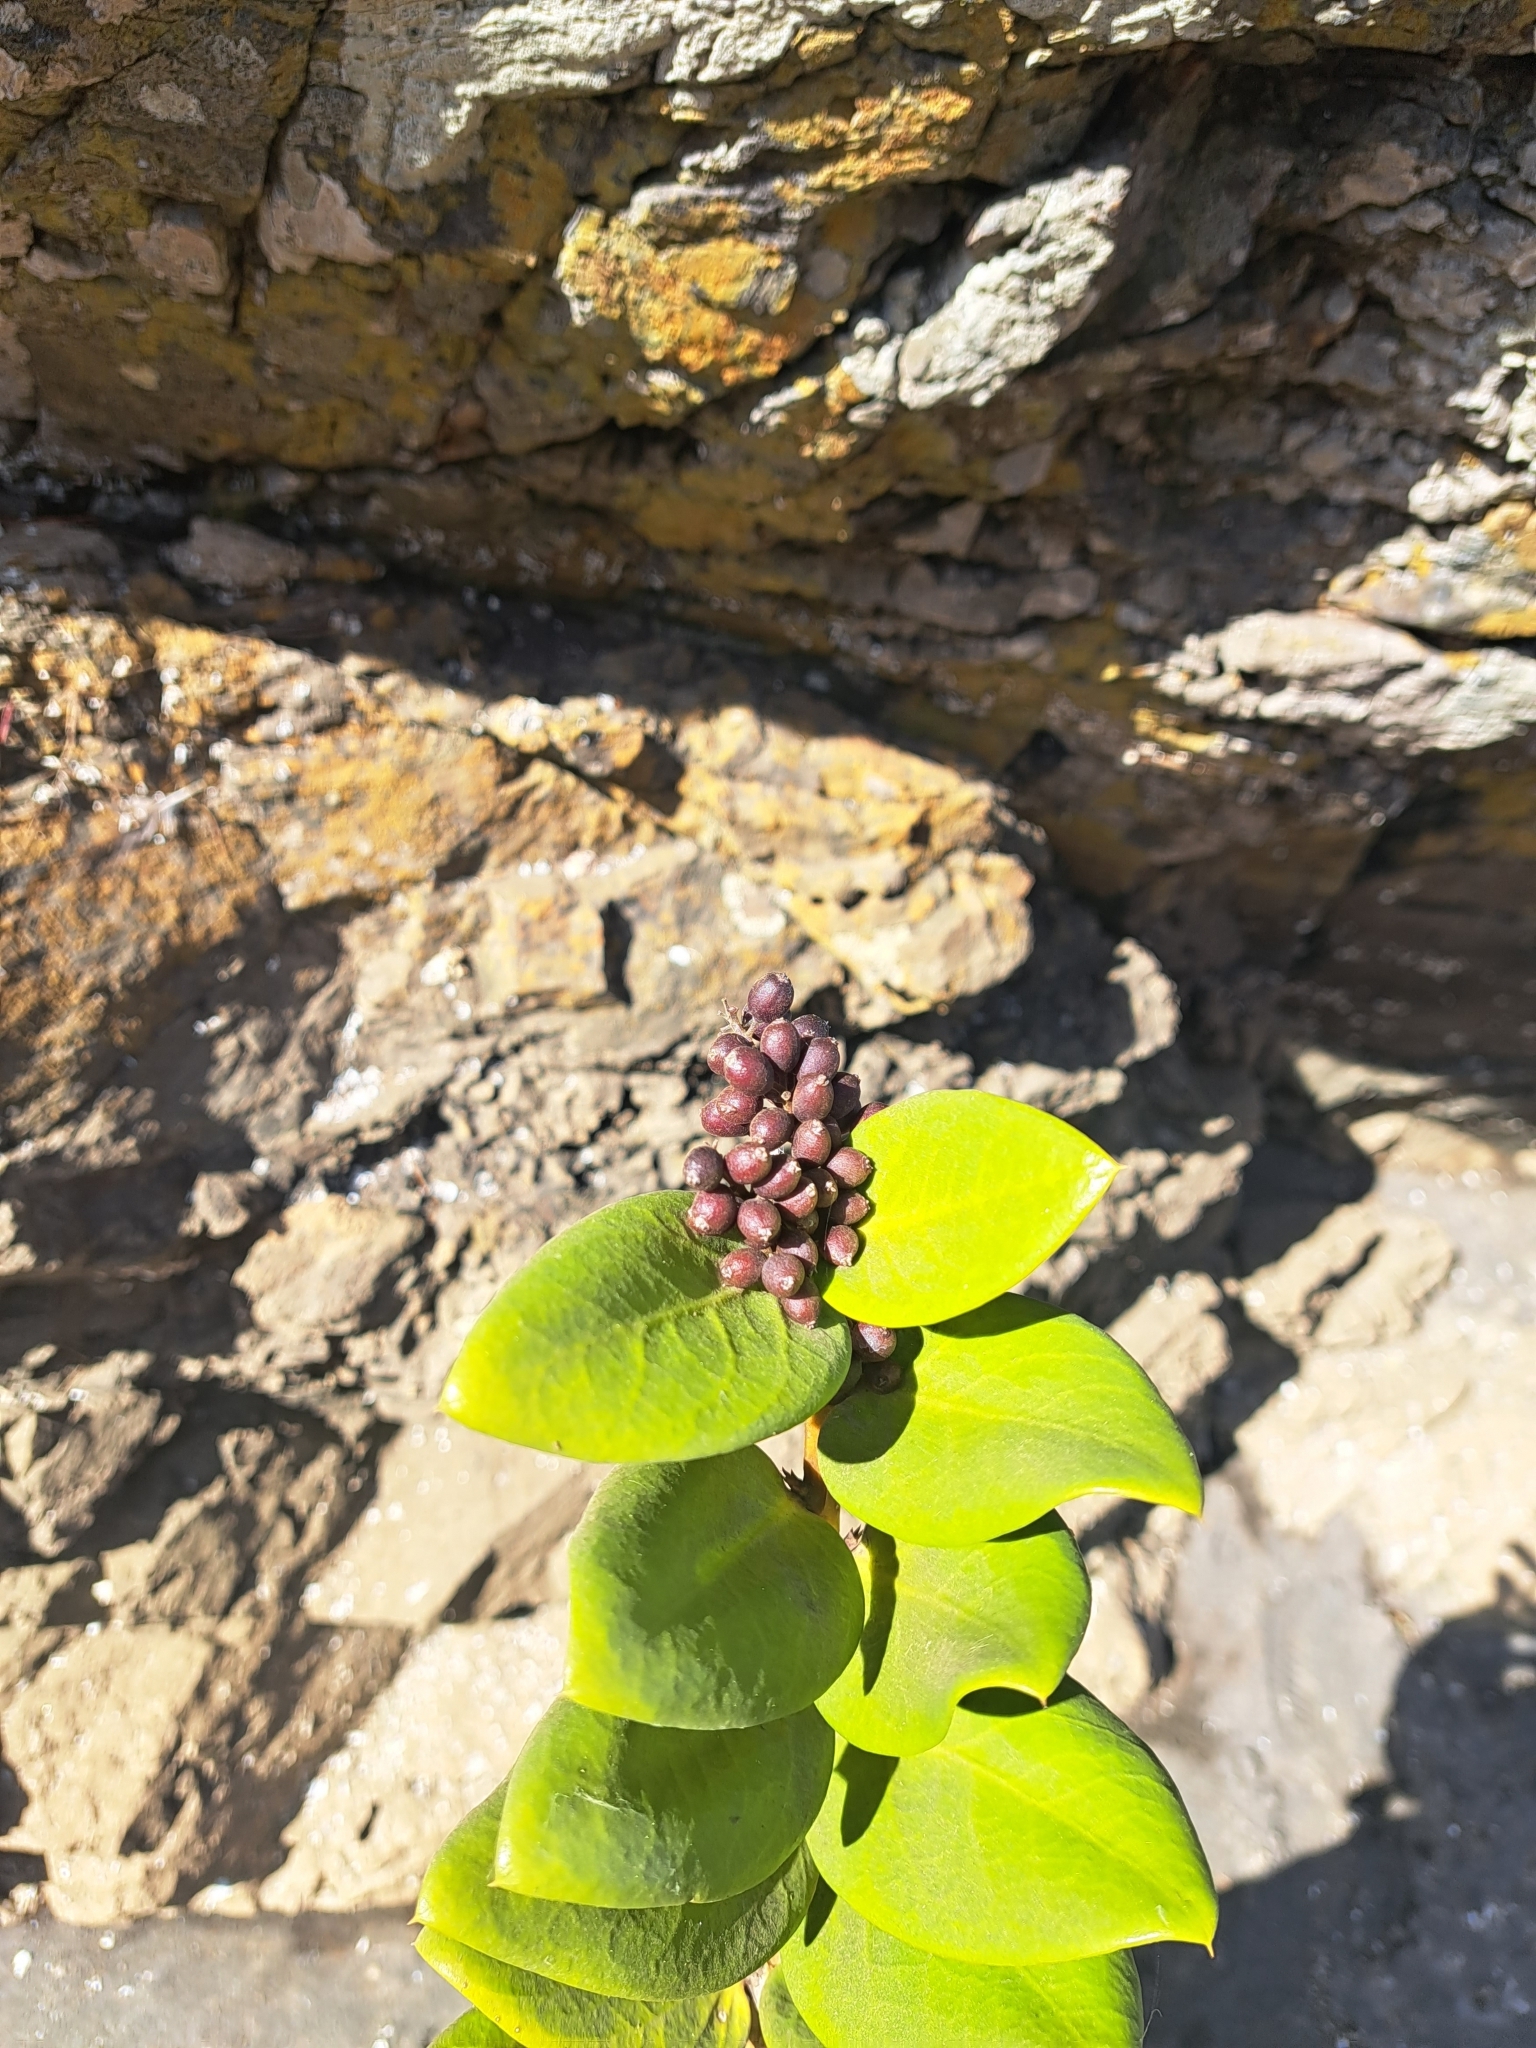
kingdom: Plantae
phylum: Tracheophyta
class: Magnoliopsida
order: Apiales
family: Griseliniaceae
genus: Griselinia
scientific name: Griselinia scandens
